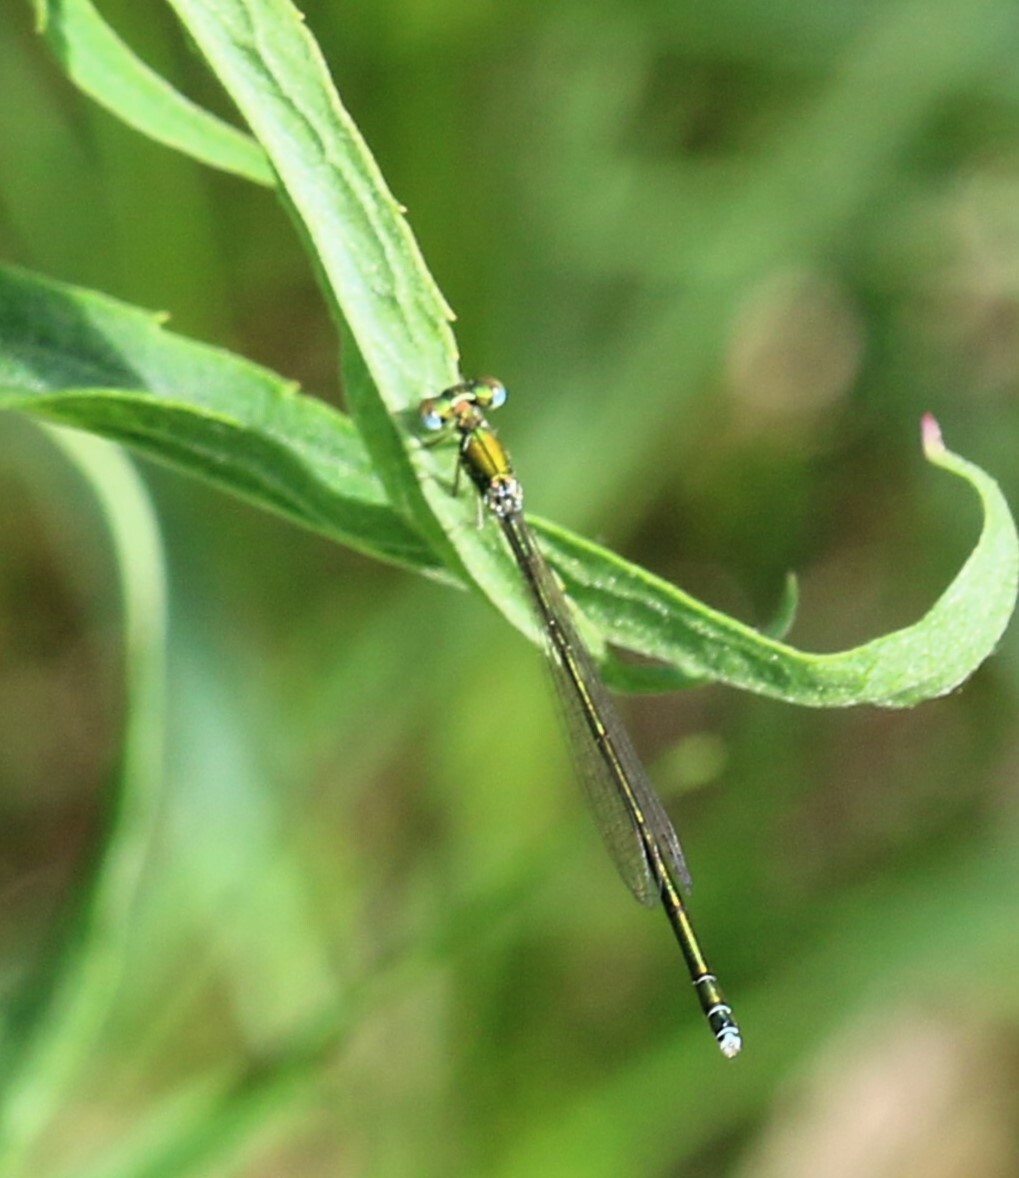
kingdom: Animalia
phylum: Arthropoda
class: Insecta
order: Odonata
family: Coenagrionidae
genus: Nehalennia
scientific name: Nehalennia irene
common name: Sedge sprite
